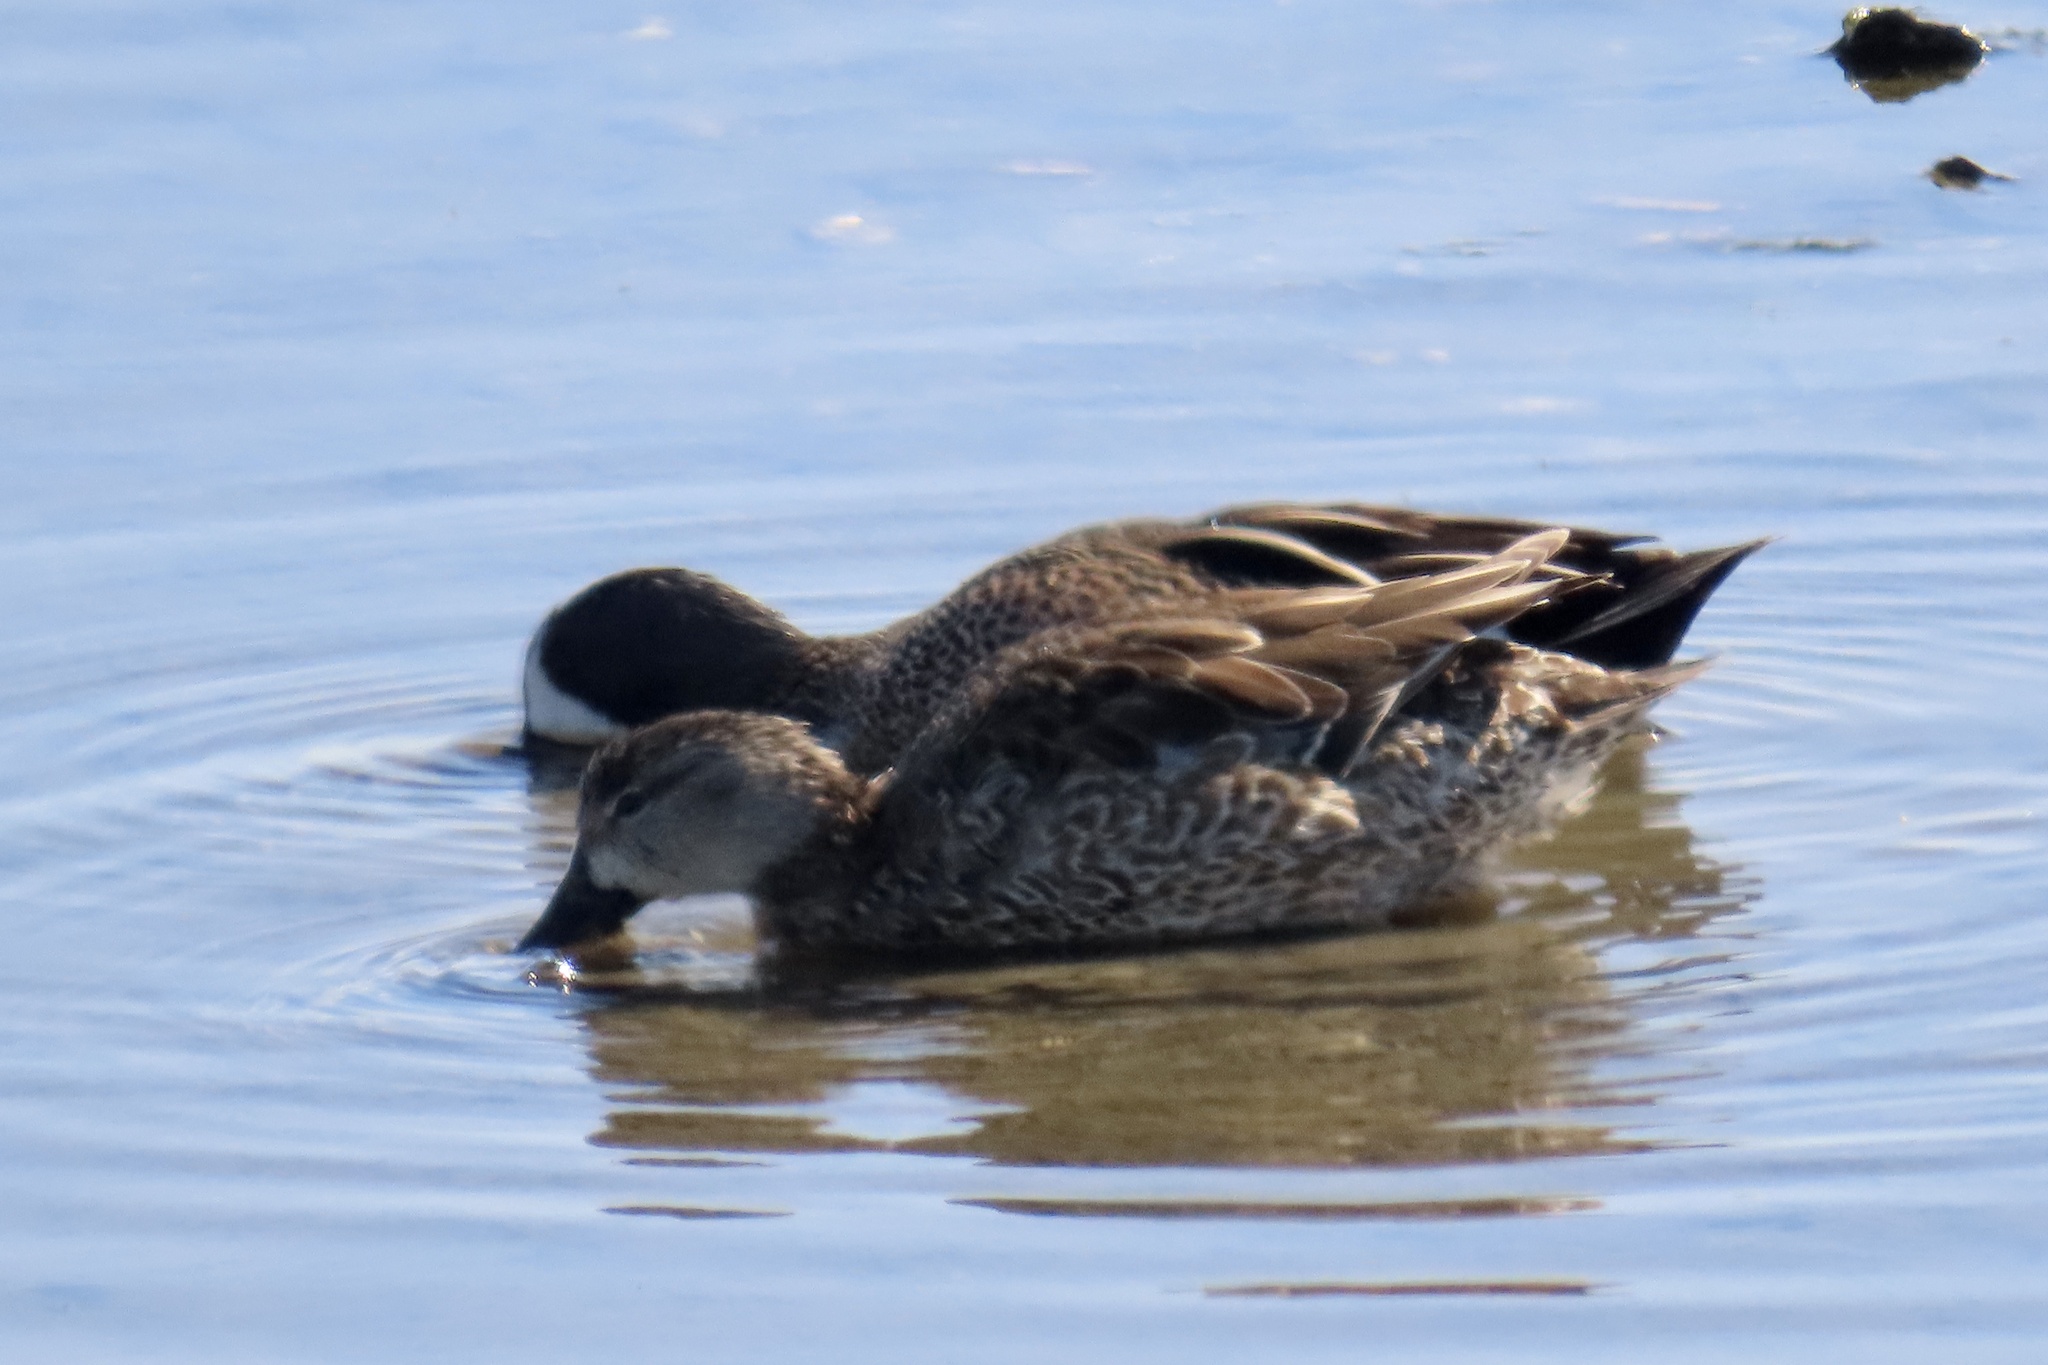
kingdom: Animalia
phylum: Chordata
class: Aves
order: Anseriformes
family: Anatidae
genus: Spatula
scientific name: Spatula discors
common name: Blue-winged teal
